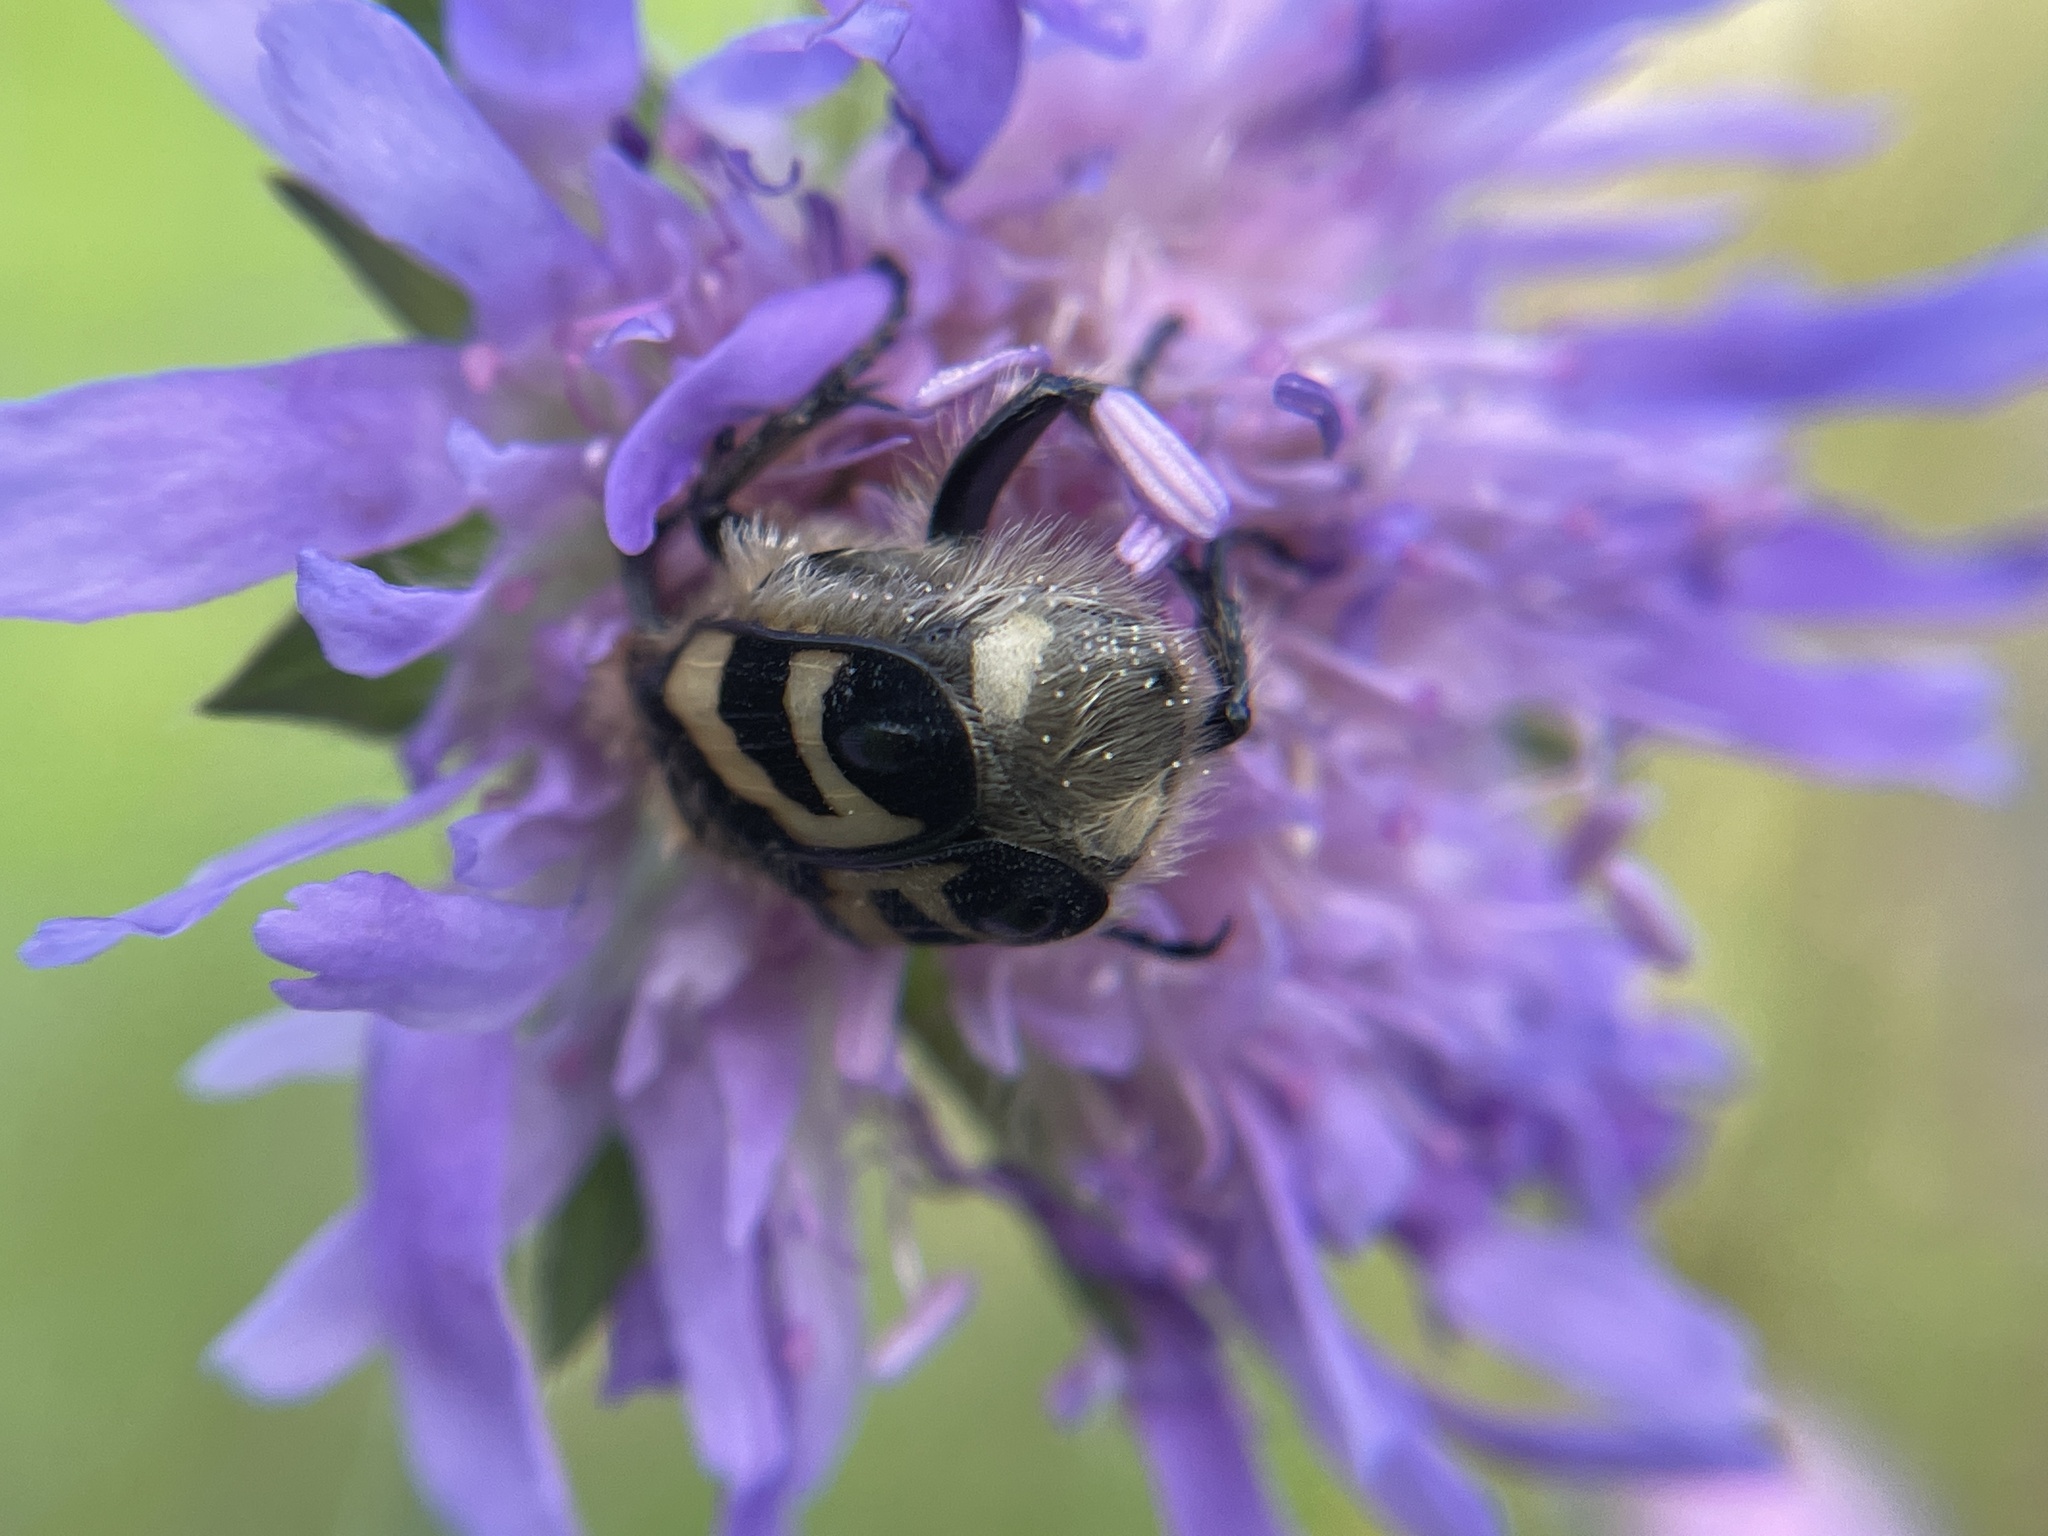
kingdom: Animalia
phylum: Arthropoda
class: Insecta
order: Coleoptera
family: Scarabaeidae
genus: Trichius
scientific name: Trichius fasciatus
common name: Bee beetle
